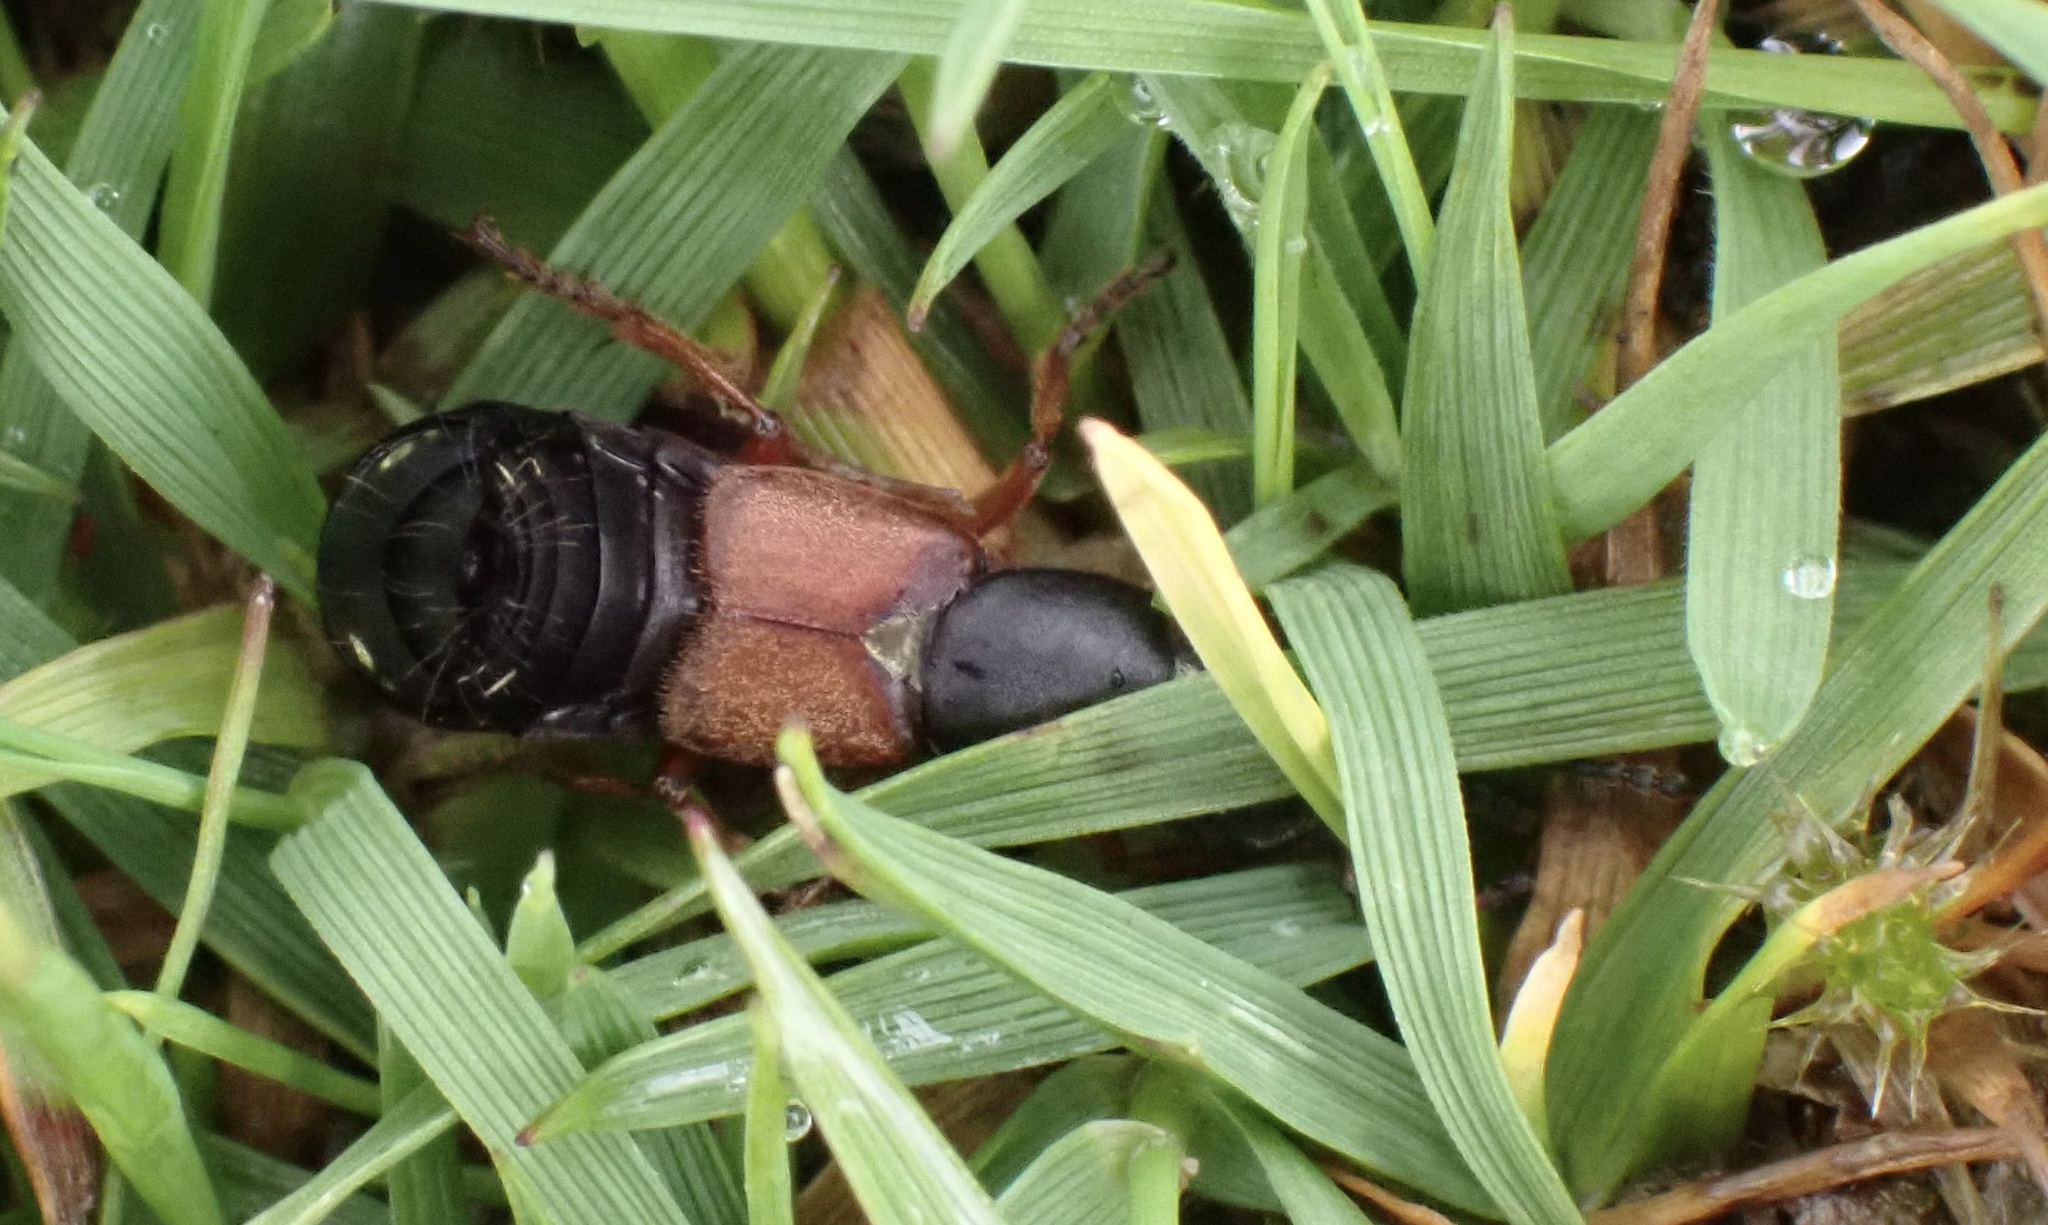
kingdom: Animalia
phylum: Arthropoda
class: Insecta
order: Coleoptera
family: Staphylinidae
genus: Staphylinus
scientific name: Staphylinus erythropterus
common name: Staph beetle
